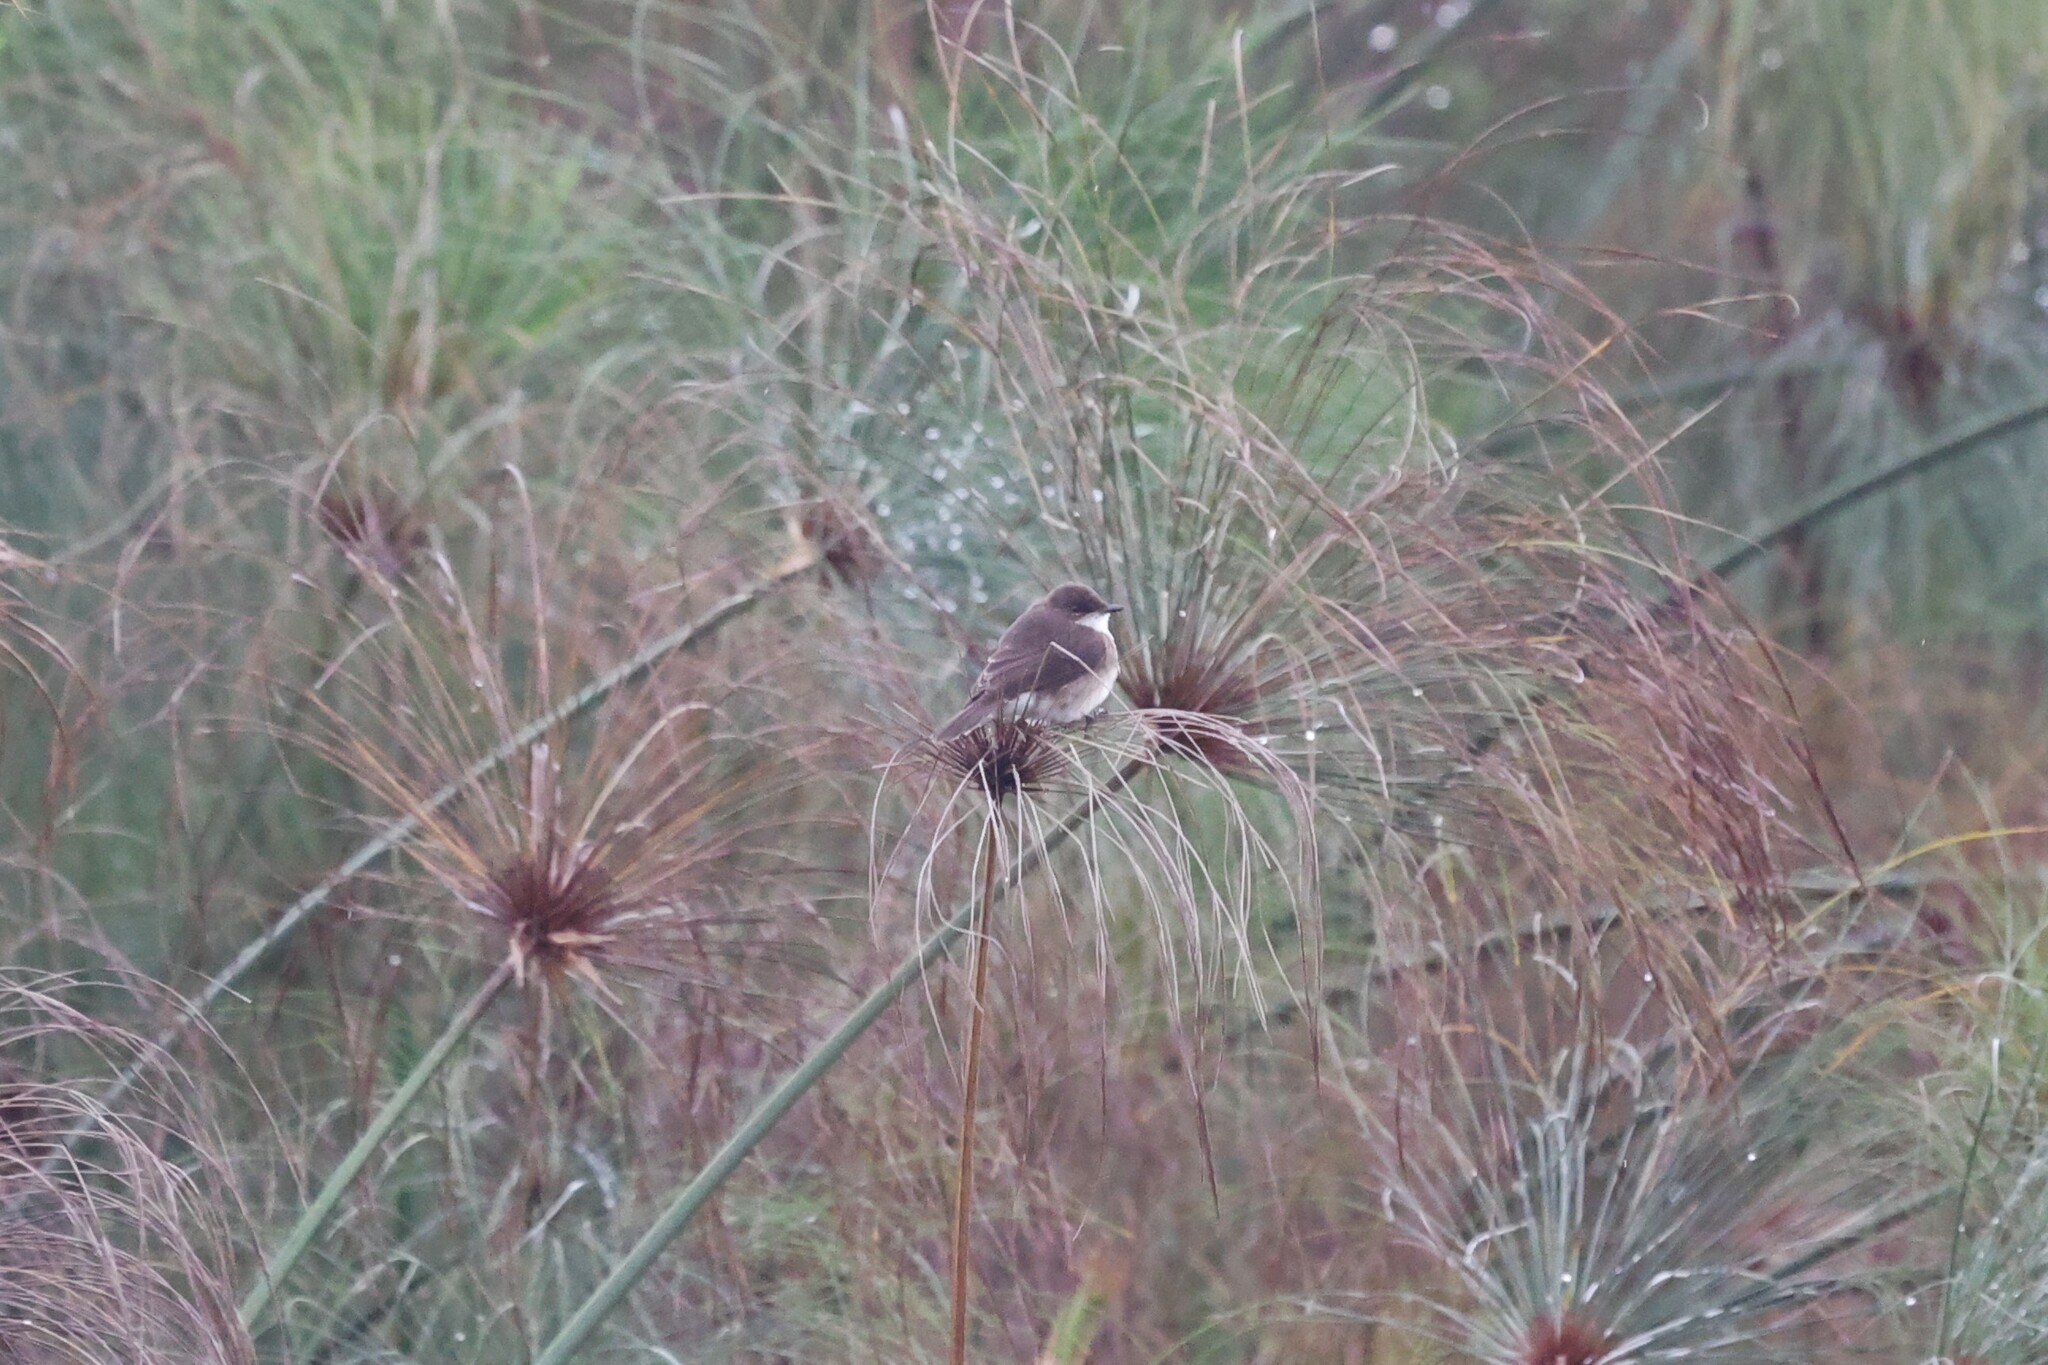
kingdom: Animalia
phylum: Chordata
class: Aves
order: Passeriformes
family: Muscicapidae
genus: Muscicapa
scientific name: Muscicapa aquatica
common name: Swamp flycatcher
